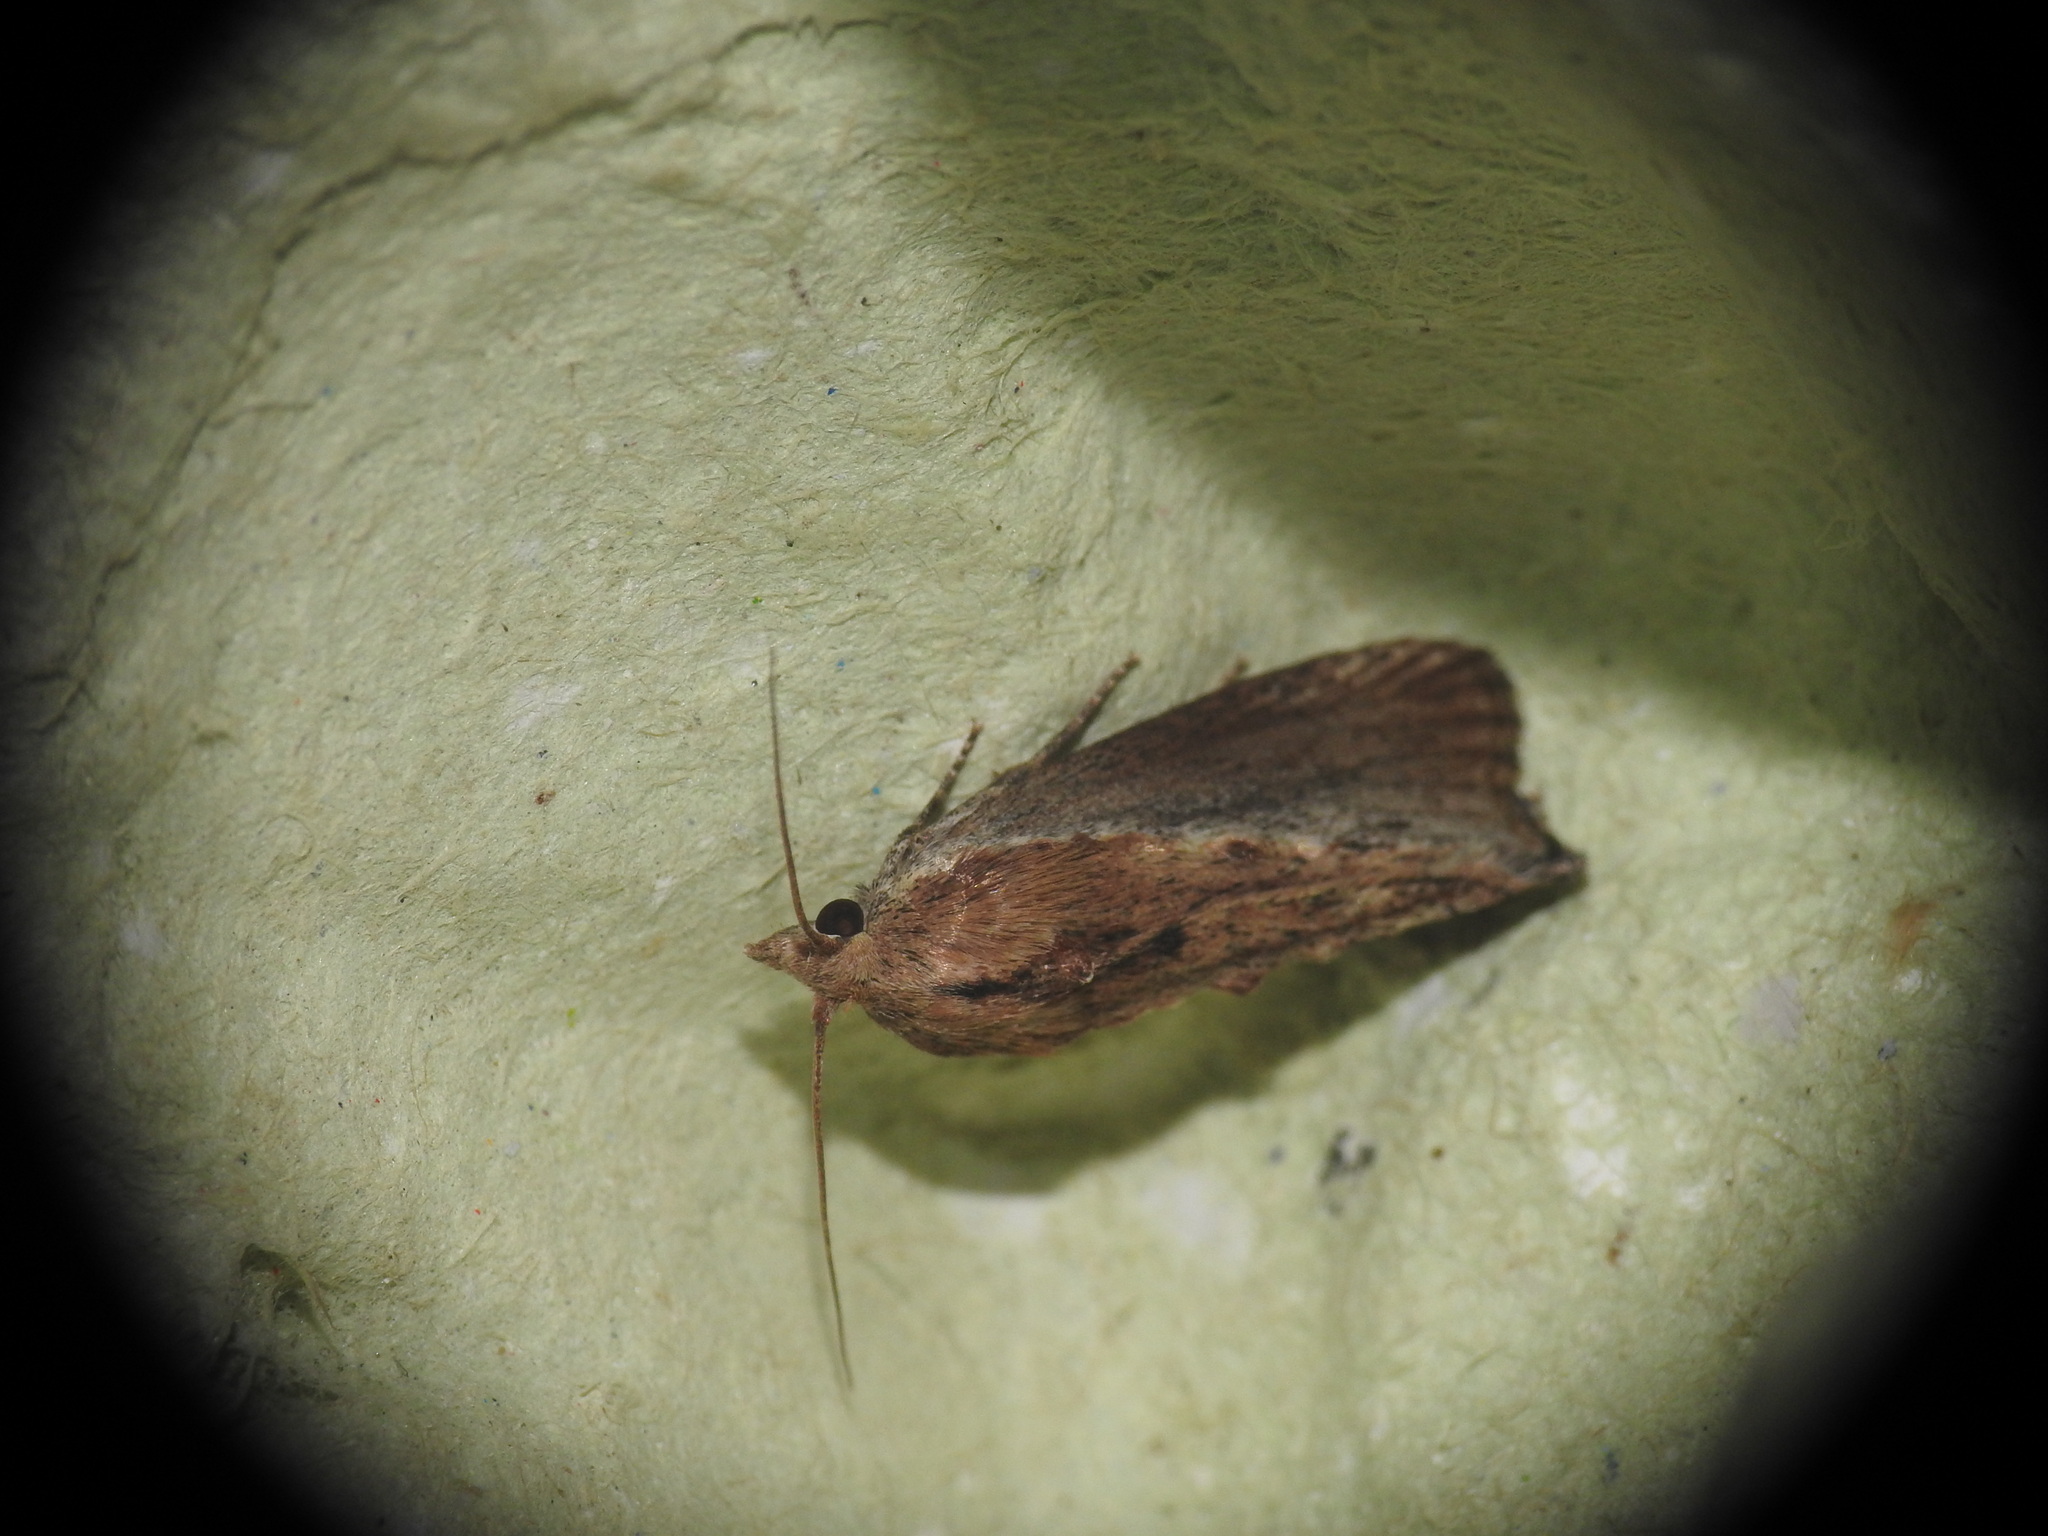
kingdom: Animalia
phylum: Arthropoda
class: Insecta
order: Lepidoptera
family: Pyralidae
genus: Galleria
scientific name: Galleria mellonella
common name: Greater wax moth
